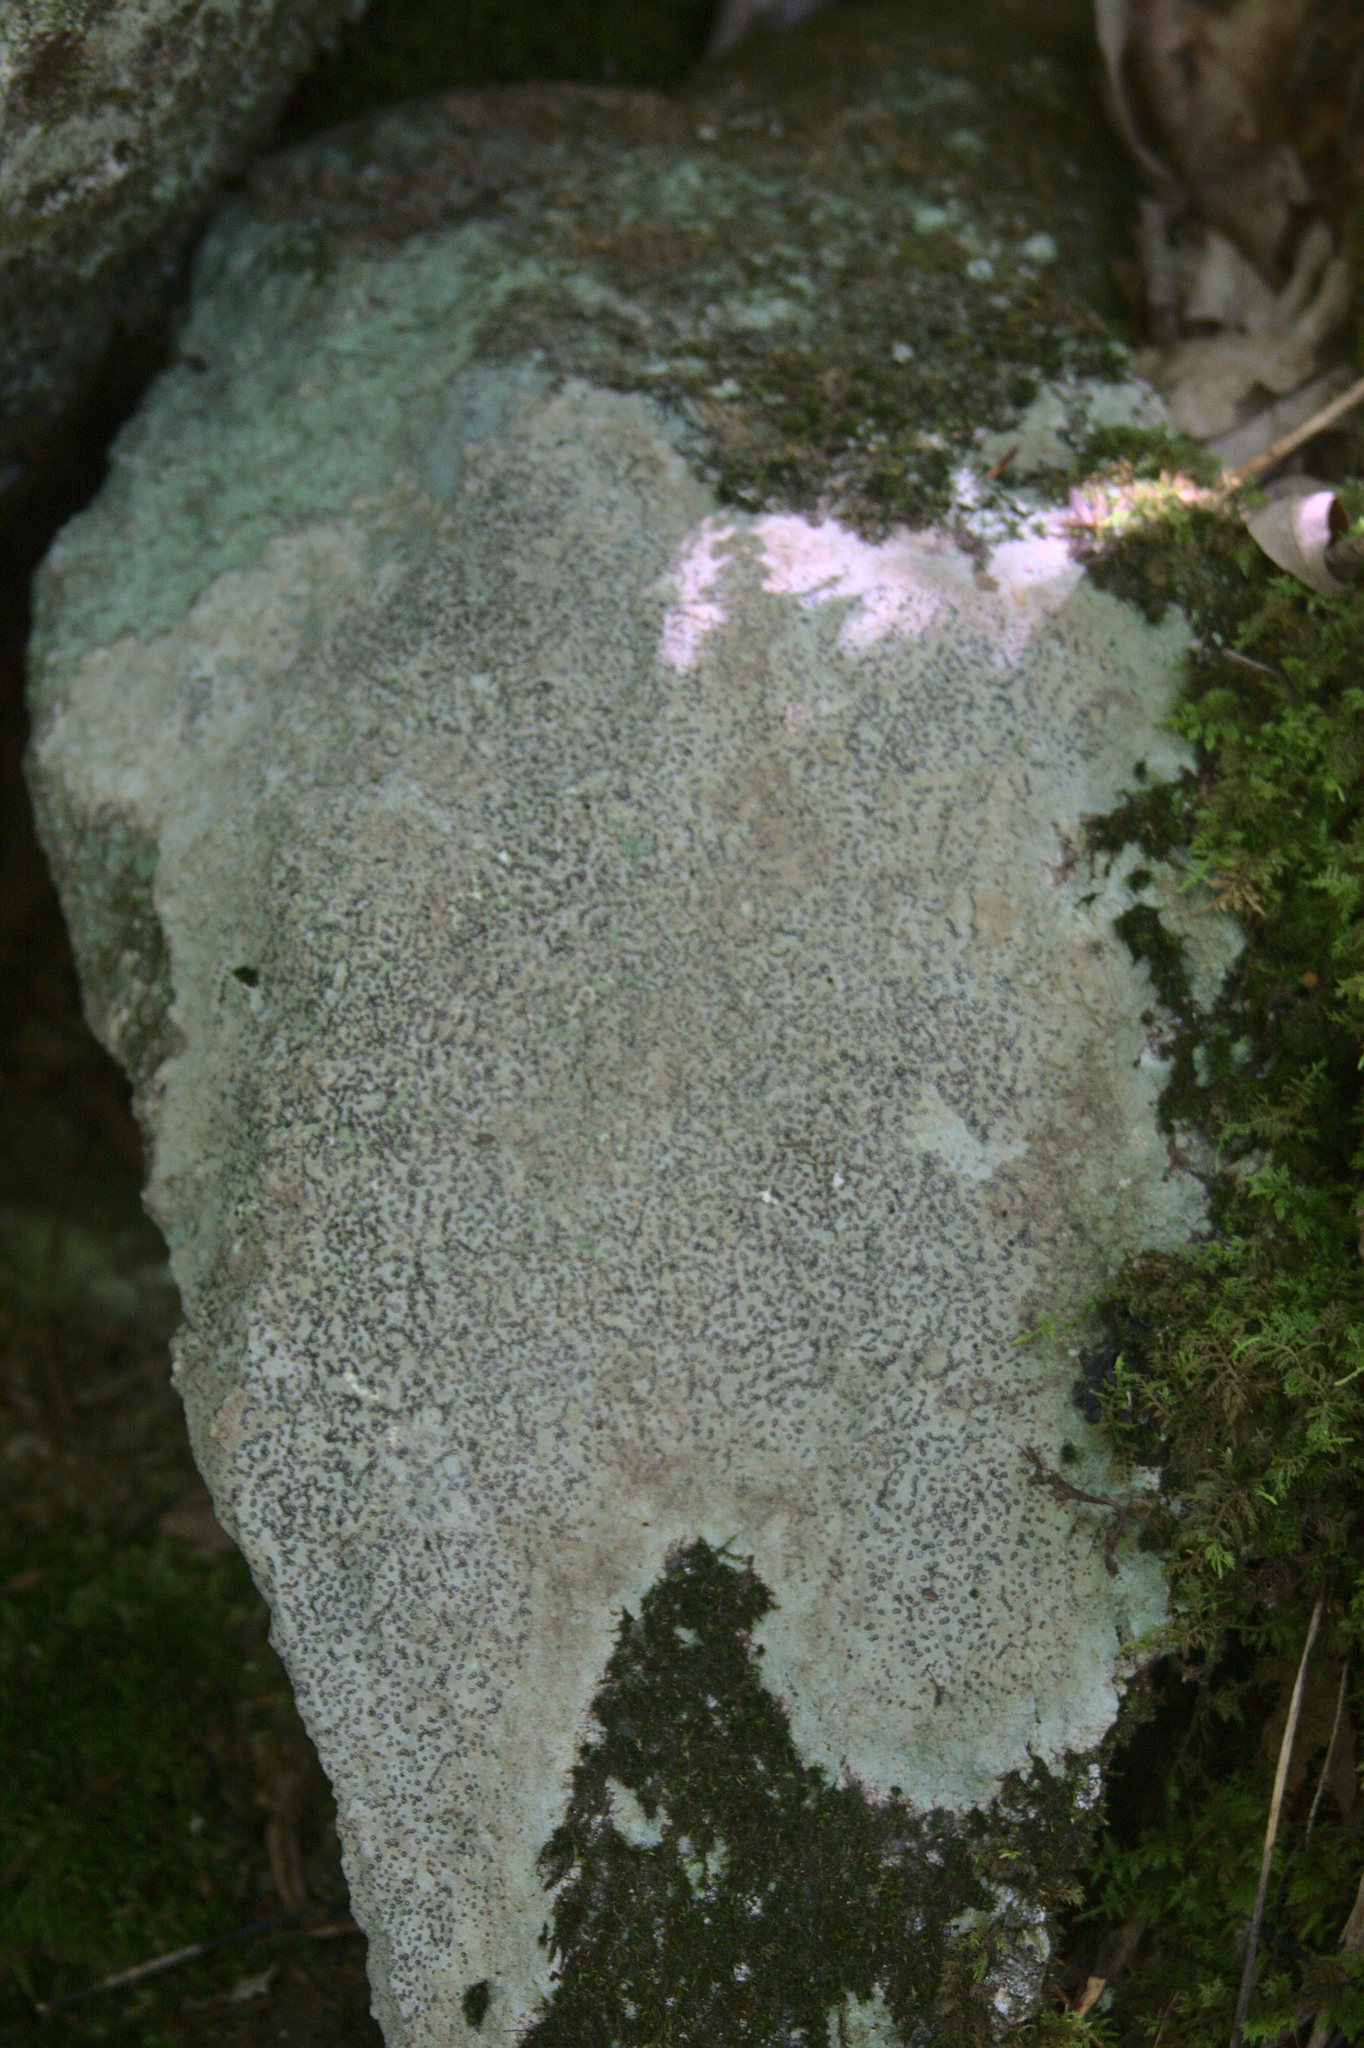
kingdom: Fungi
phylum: Ascomycota
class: Lecanoromycetes
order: Lecideales
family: Lecideaceae
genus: Porpidia
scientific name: Porpidia albocaerulescens
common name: Smokey-eyed boulder lichen
